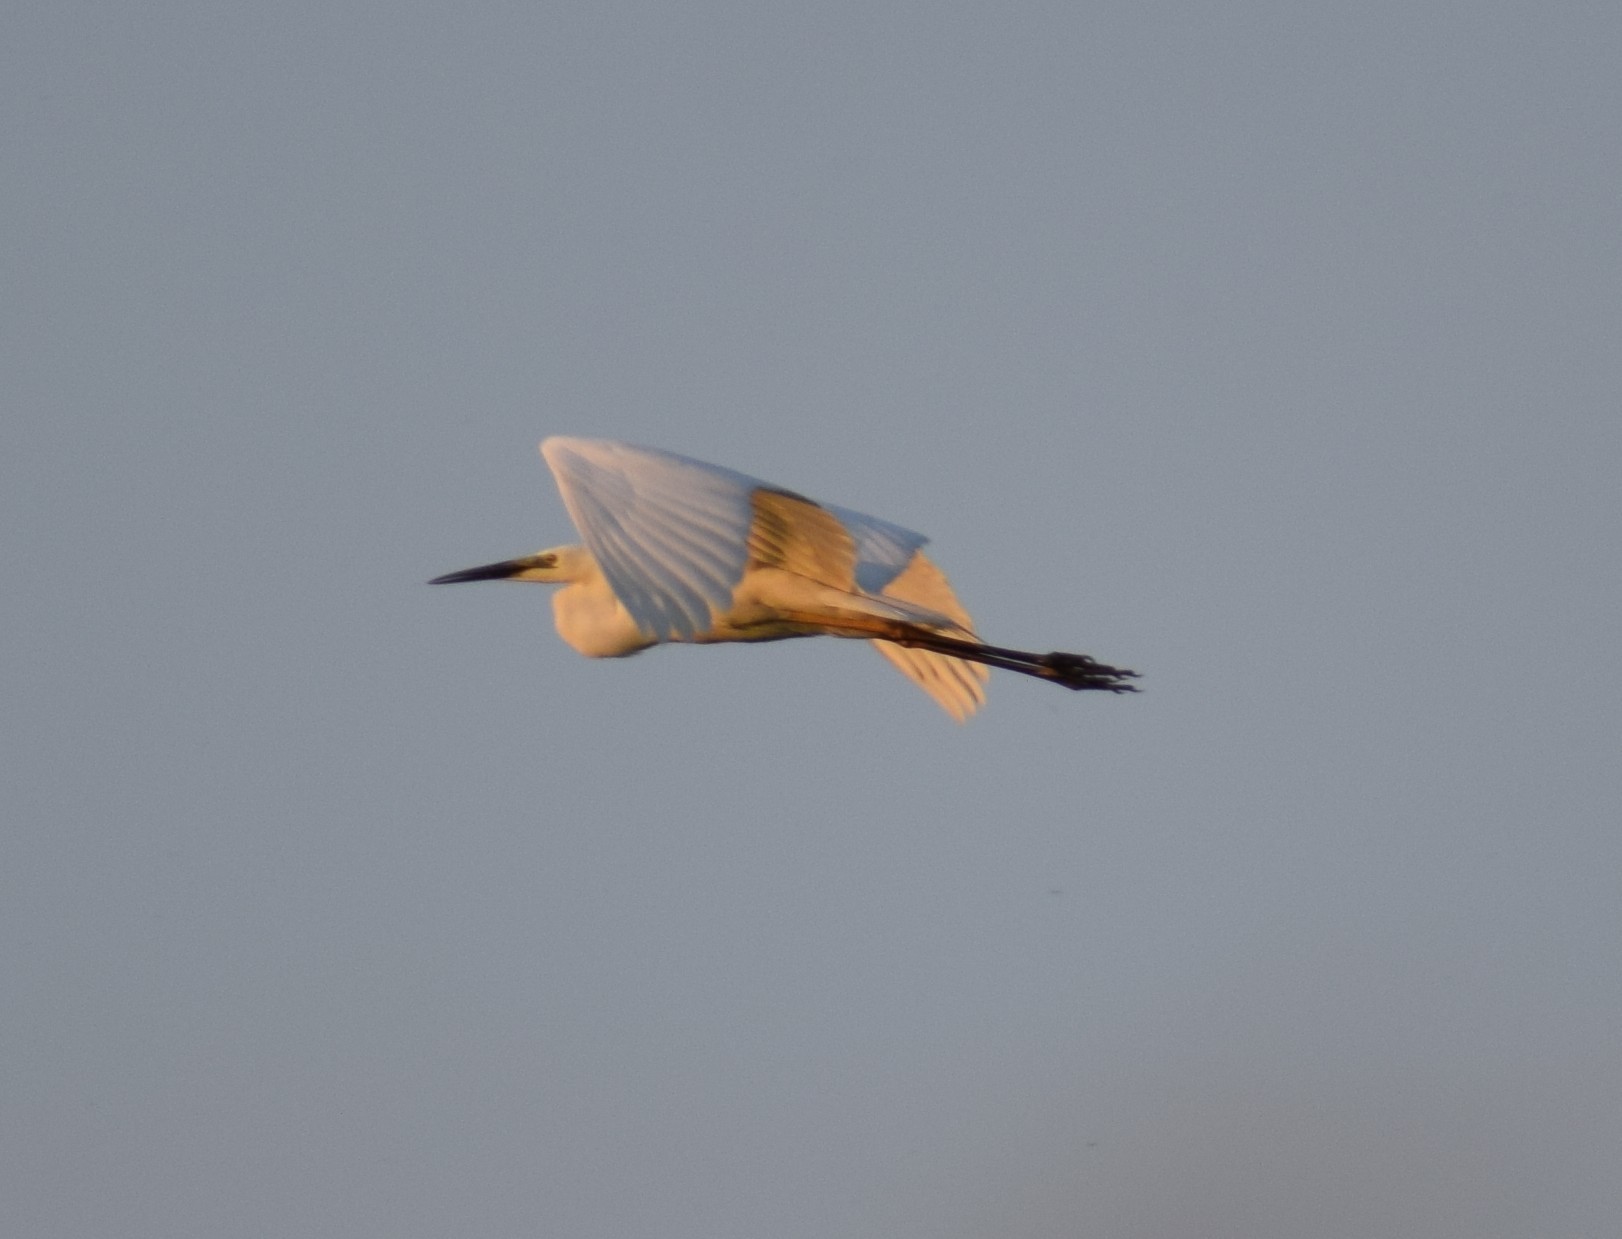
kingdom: Animalia
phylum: Chordata
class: Aves
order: Pelecaniformes
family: Ardeidae
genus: Ardea
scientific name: Ardea alba
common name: Great egret
